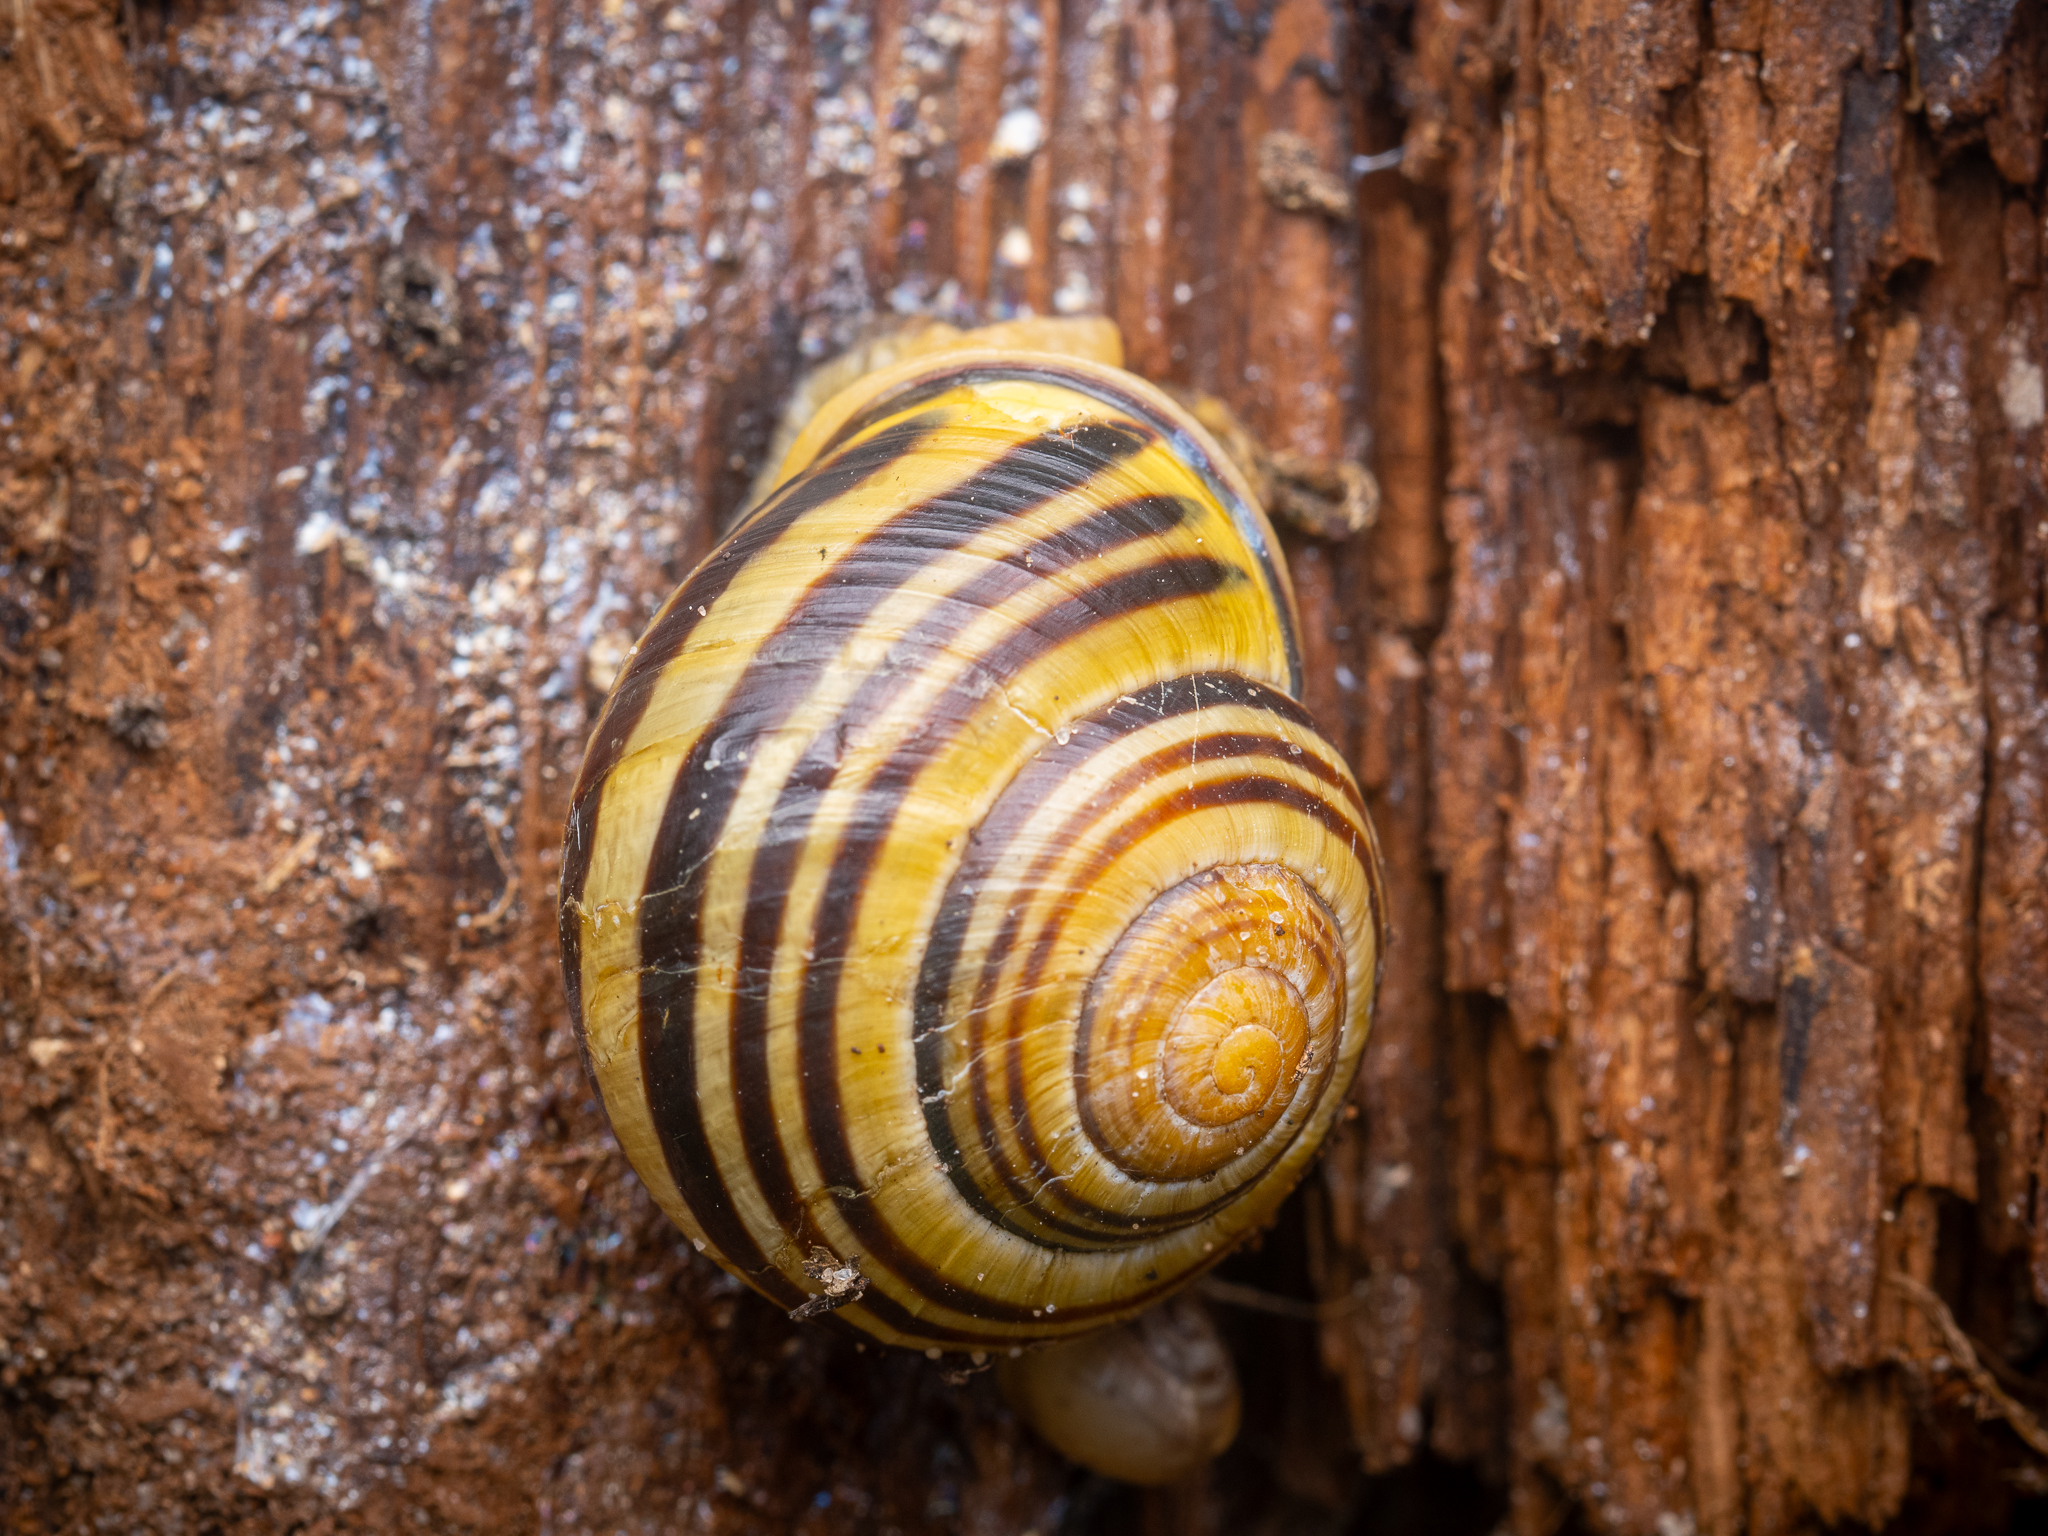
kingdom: Animalia
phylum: Mollusca
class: Gastropoda
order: Stylommatophora
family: Helicidae
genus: Cepaea
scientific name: Cepaea nemoralis
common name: Grovesnail
